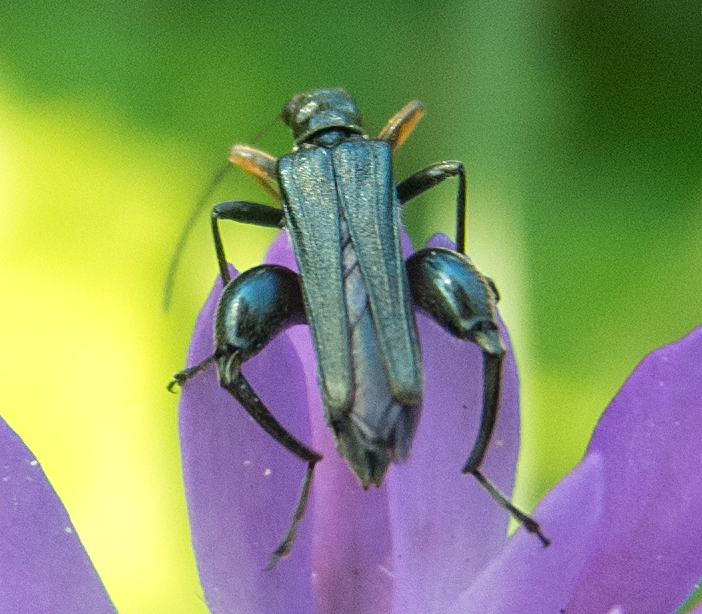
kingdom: Animalia
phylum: Arthropoda
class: Insecta
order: Coleoptera
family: Oedemeridae
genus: Oedemera
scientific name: Oedemera flavipes
